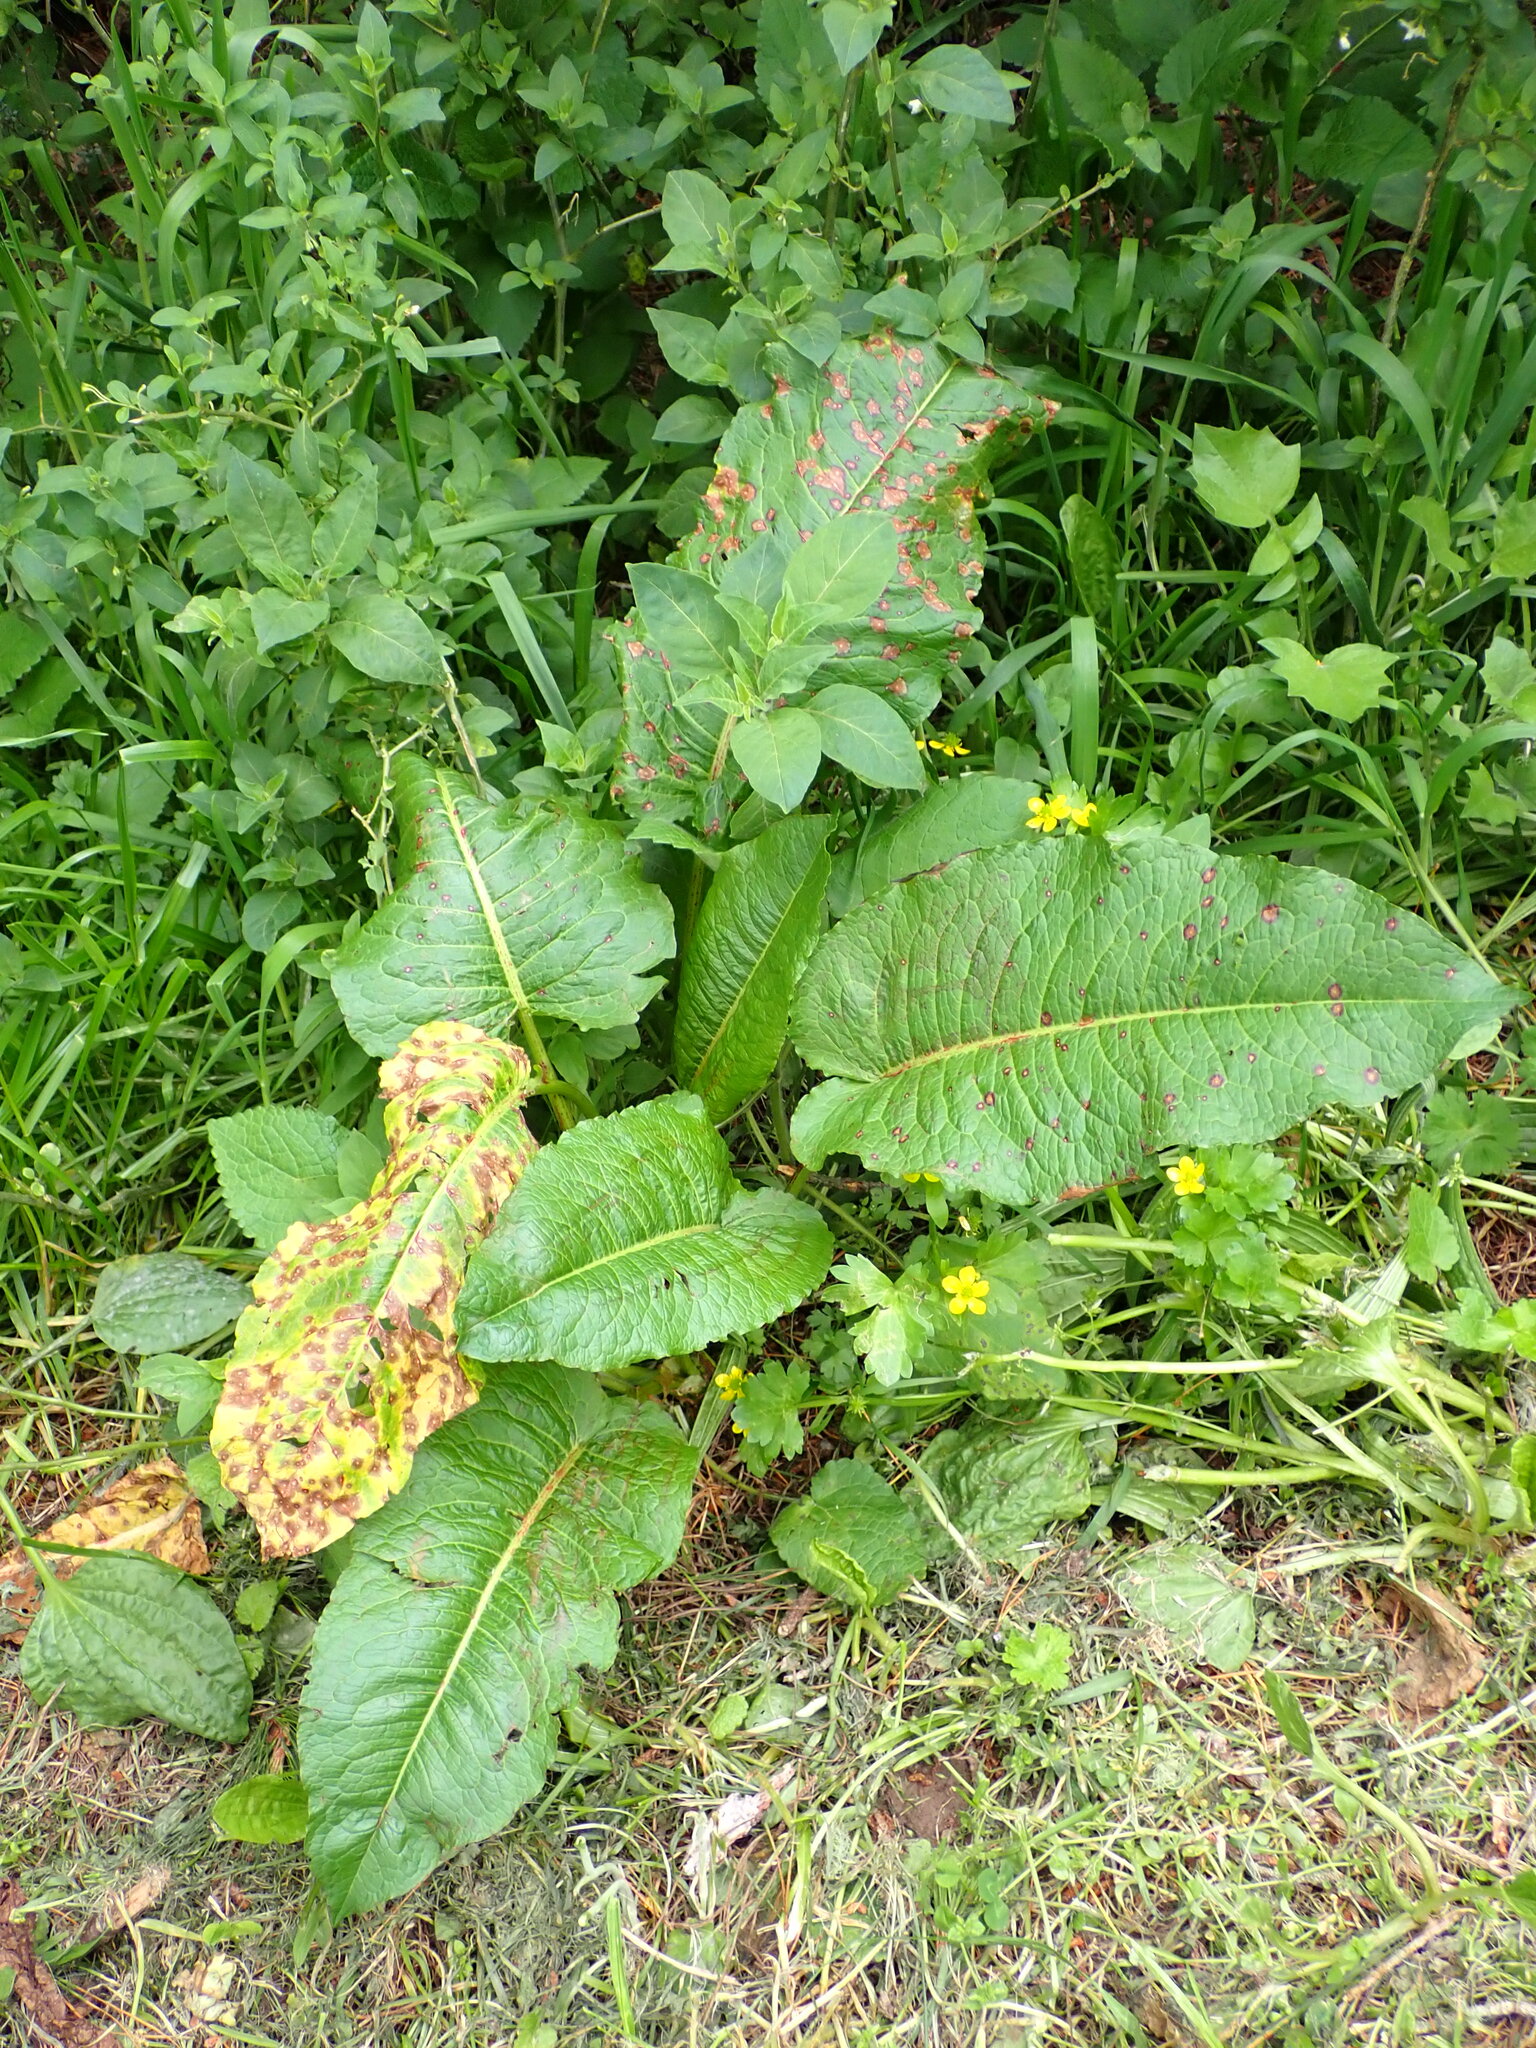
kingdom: Plantae
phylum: Tracheophyta
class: Magnoliopsida
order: Caryophyllales
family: Polygonaceae
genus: Rumex
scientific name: Rumex obtusifolius
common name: Bitter dock
